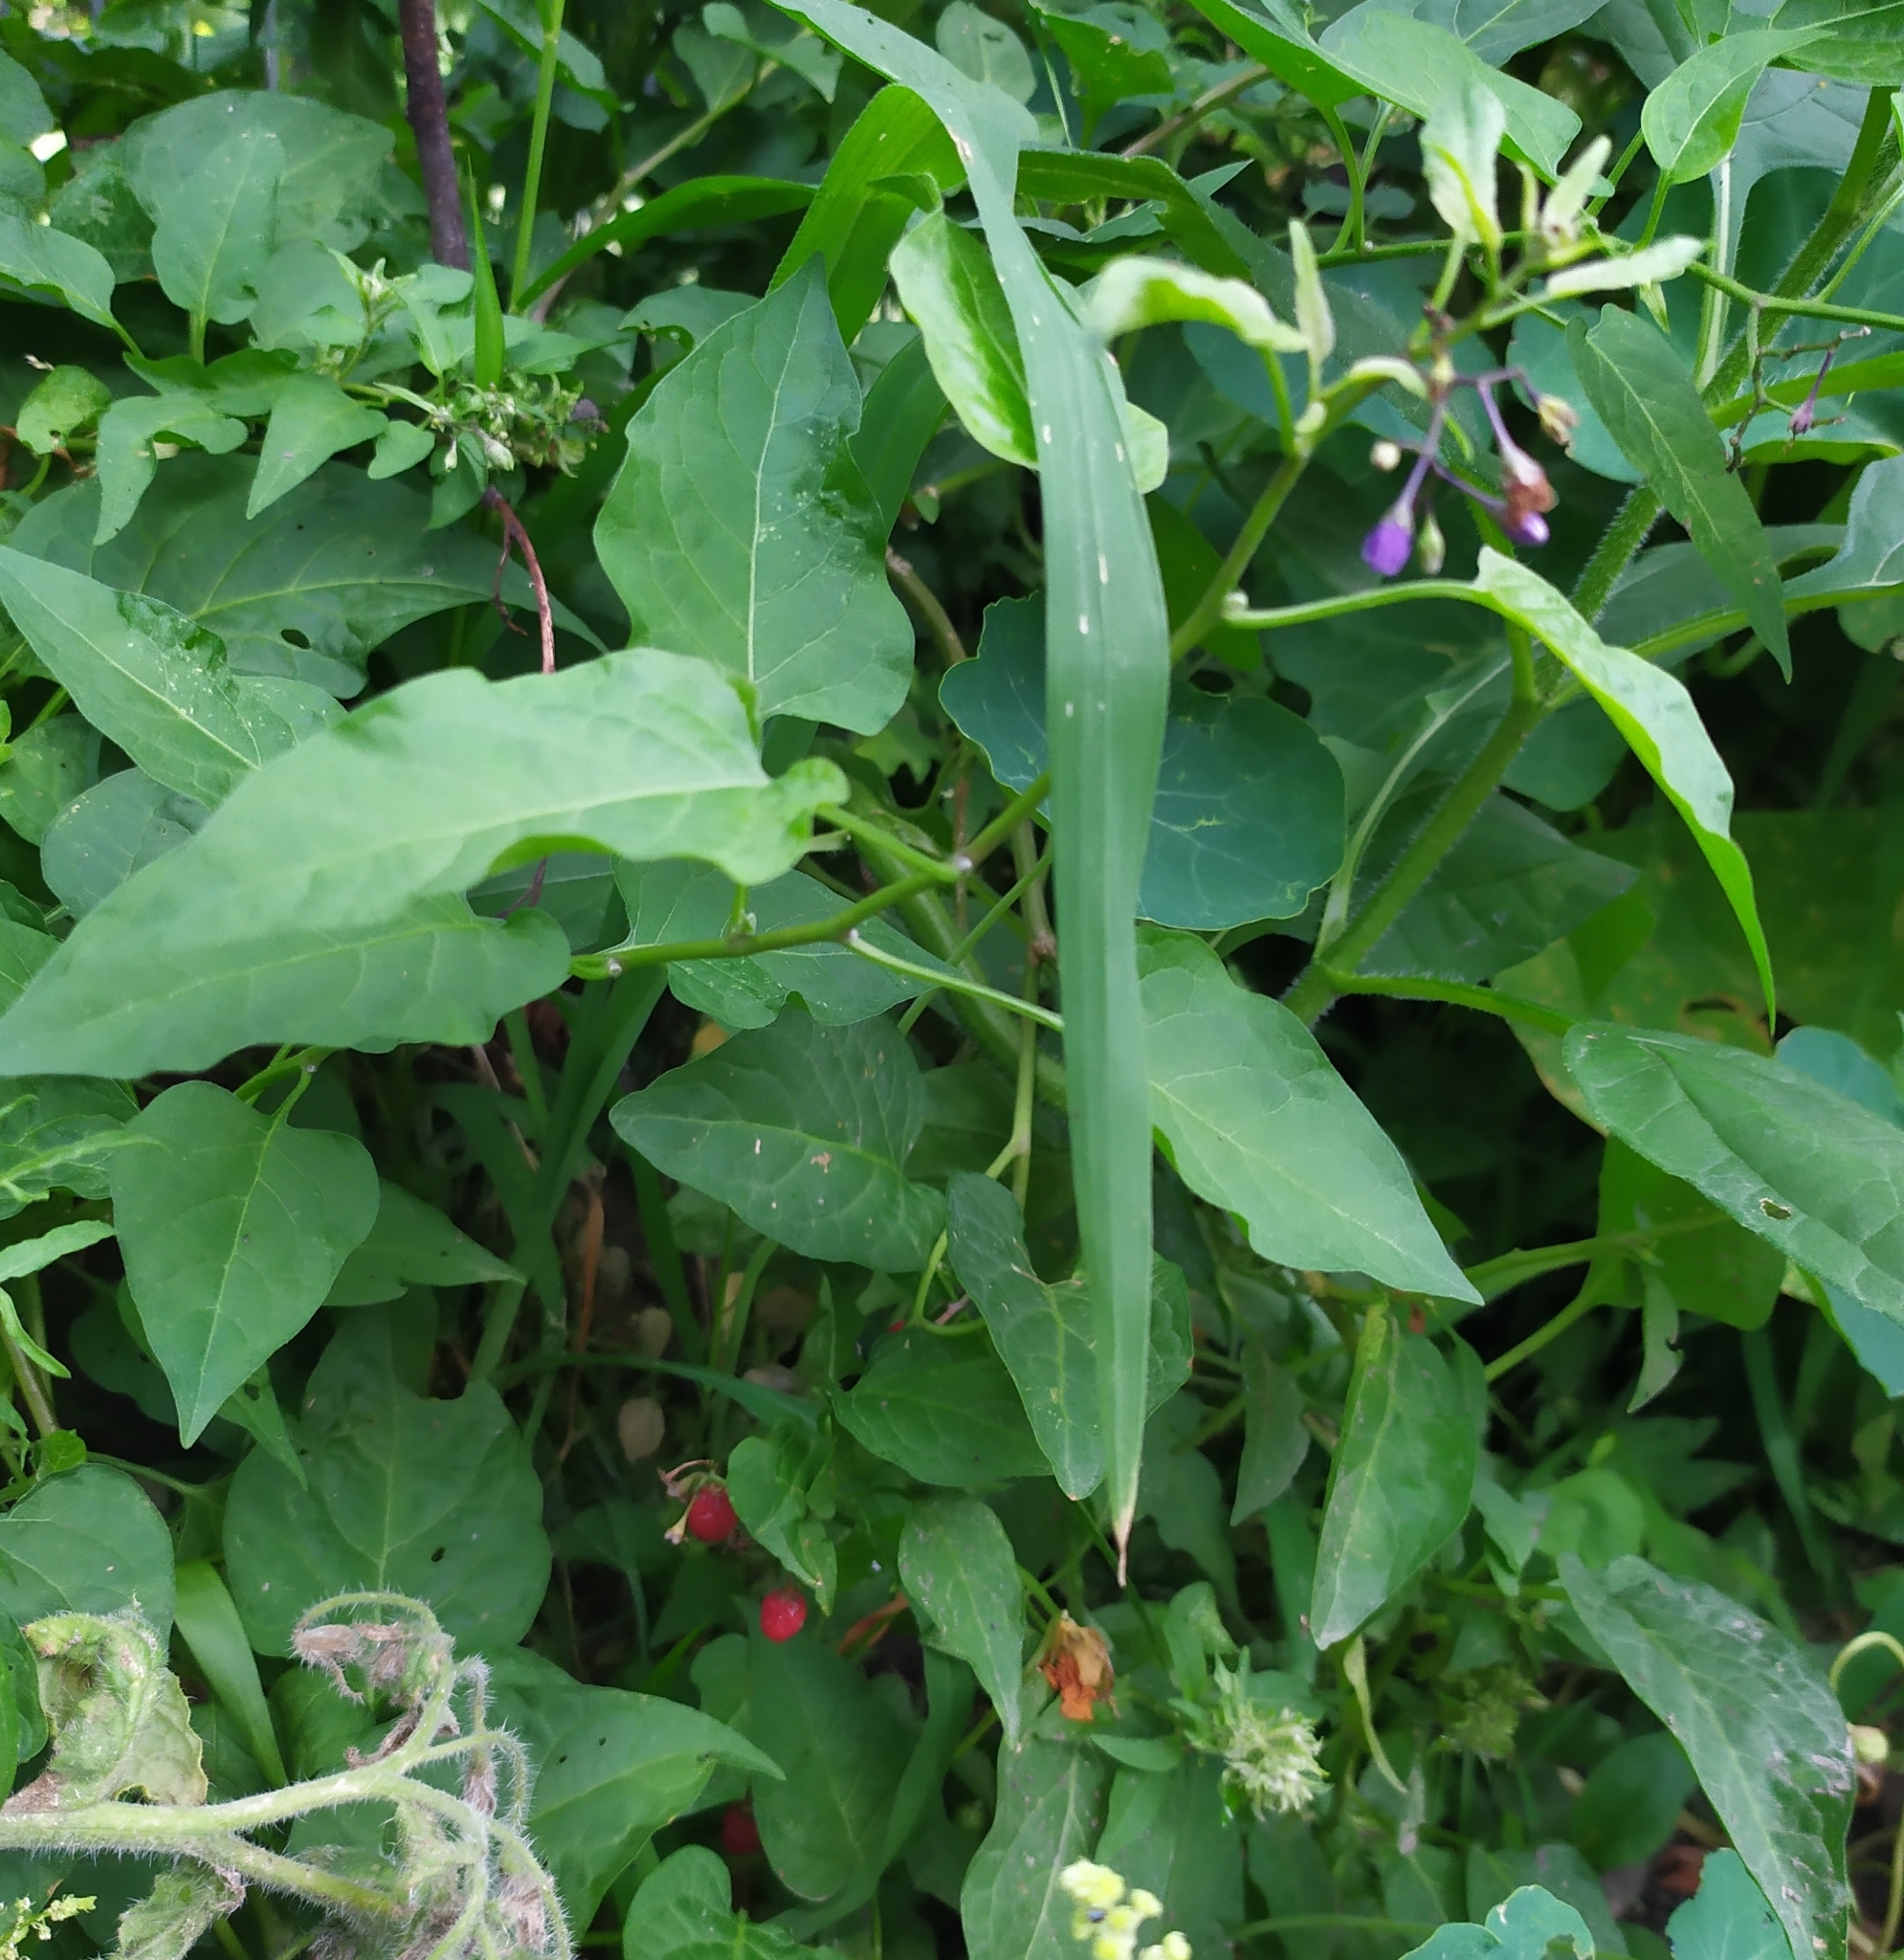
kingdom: Plantae
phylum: Tracheophyta
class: Magnoliopsida
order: Solanales
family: Solanaceae
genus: Solanum
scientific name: Solanum dulcamara
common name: Climbing nightshade
